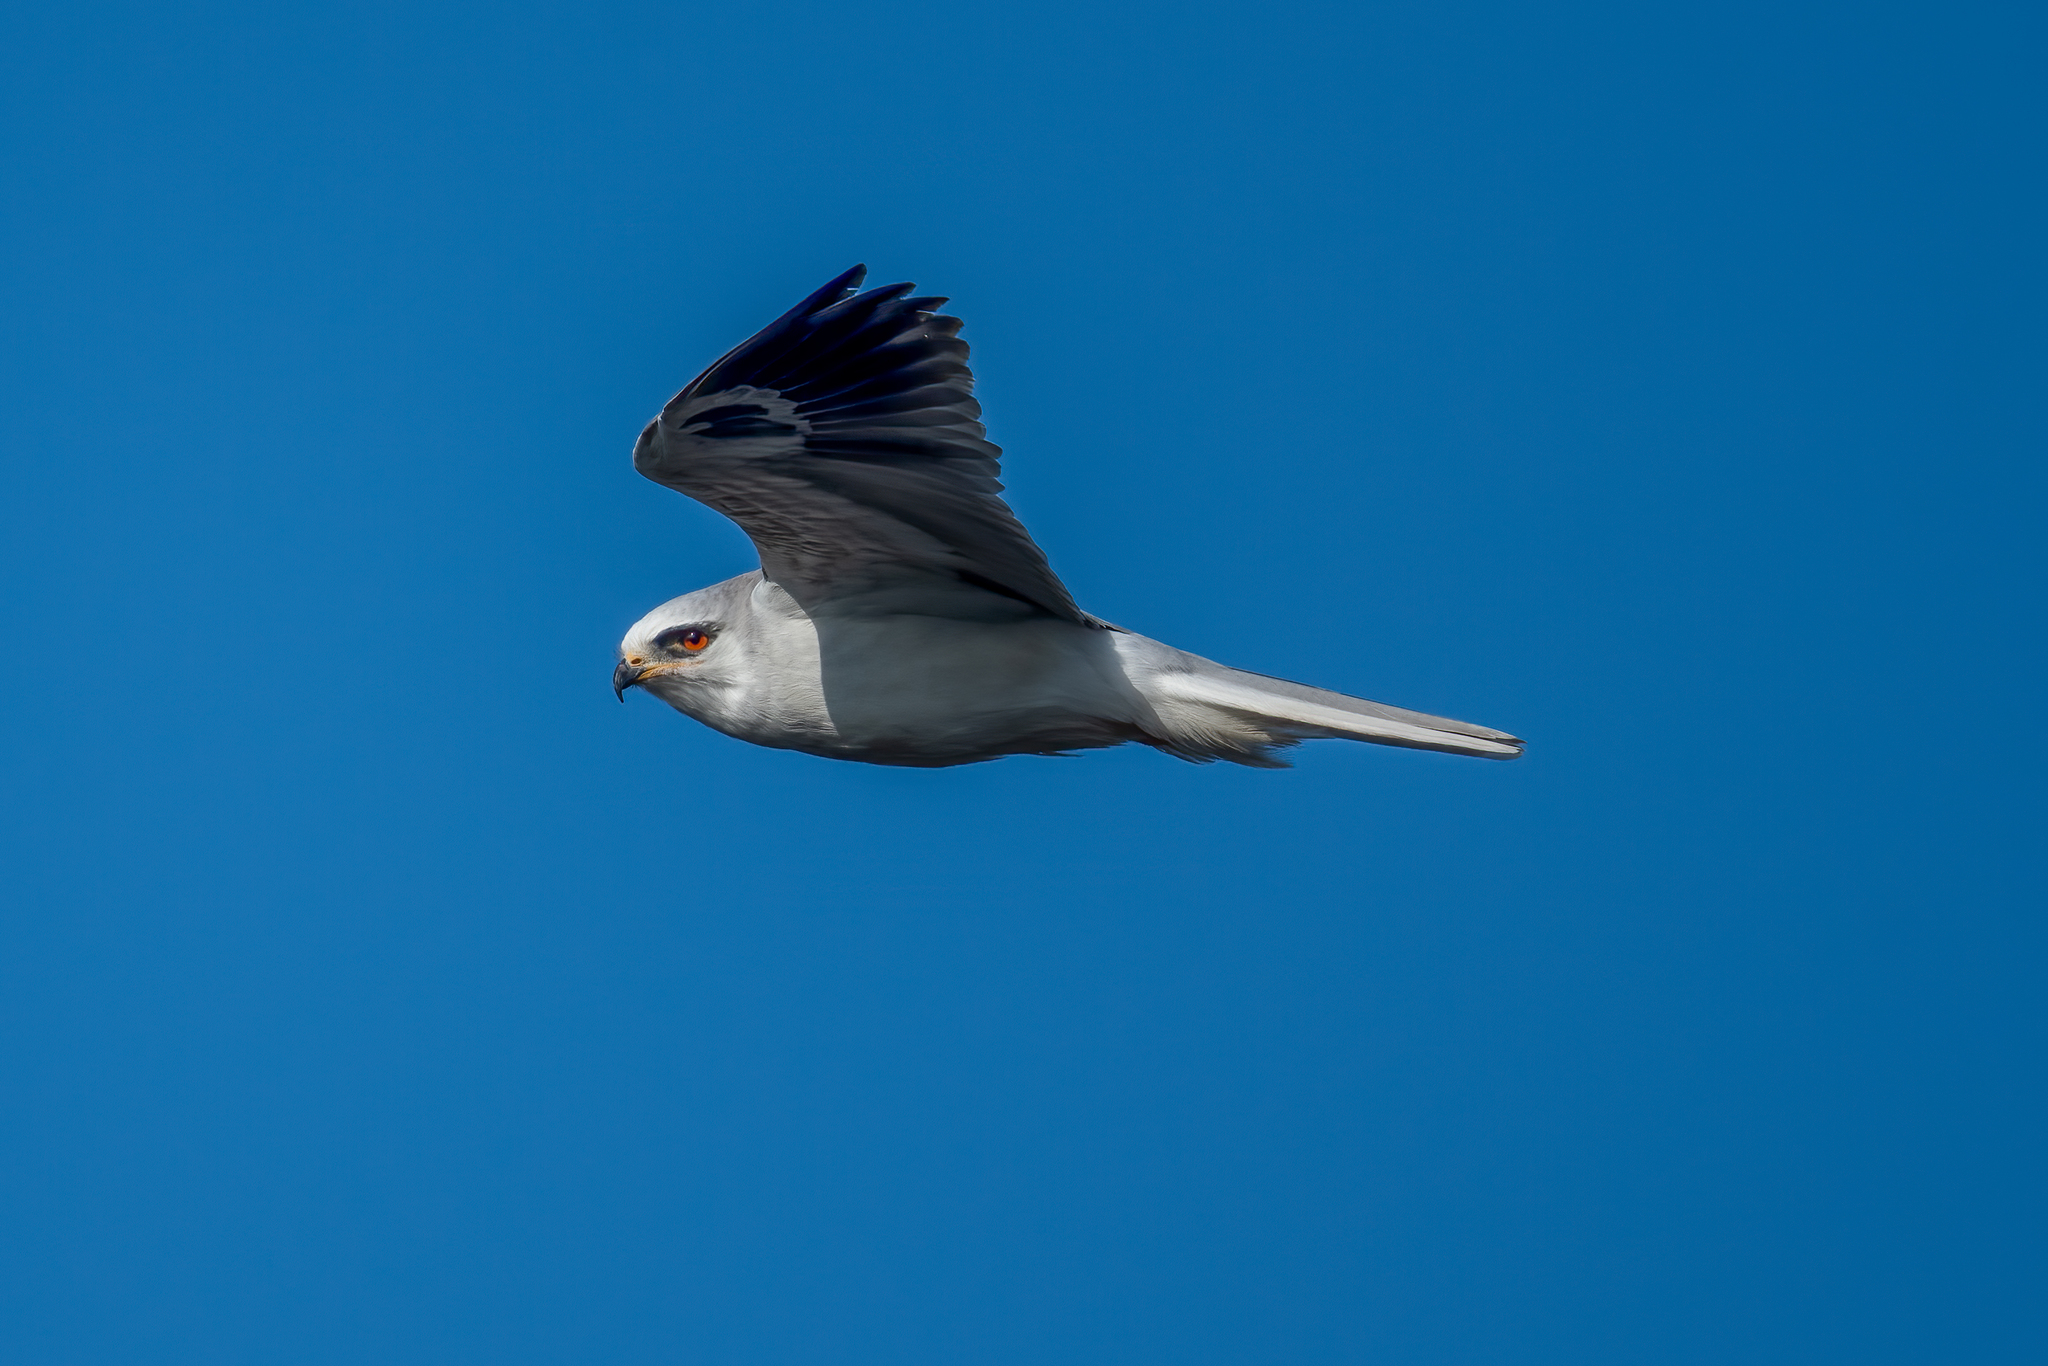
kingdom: Animalia
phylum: Chordata
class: Aves
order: Accipitriformes
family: Accipitridae
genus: Elanus
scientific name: Elanus leucurus
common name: White-tailed kite
